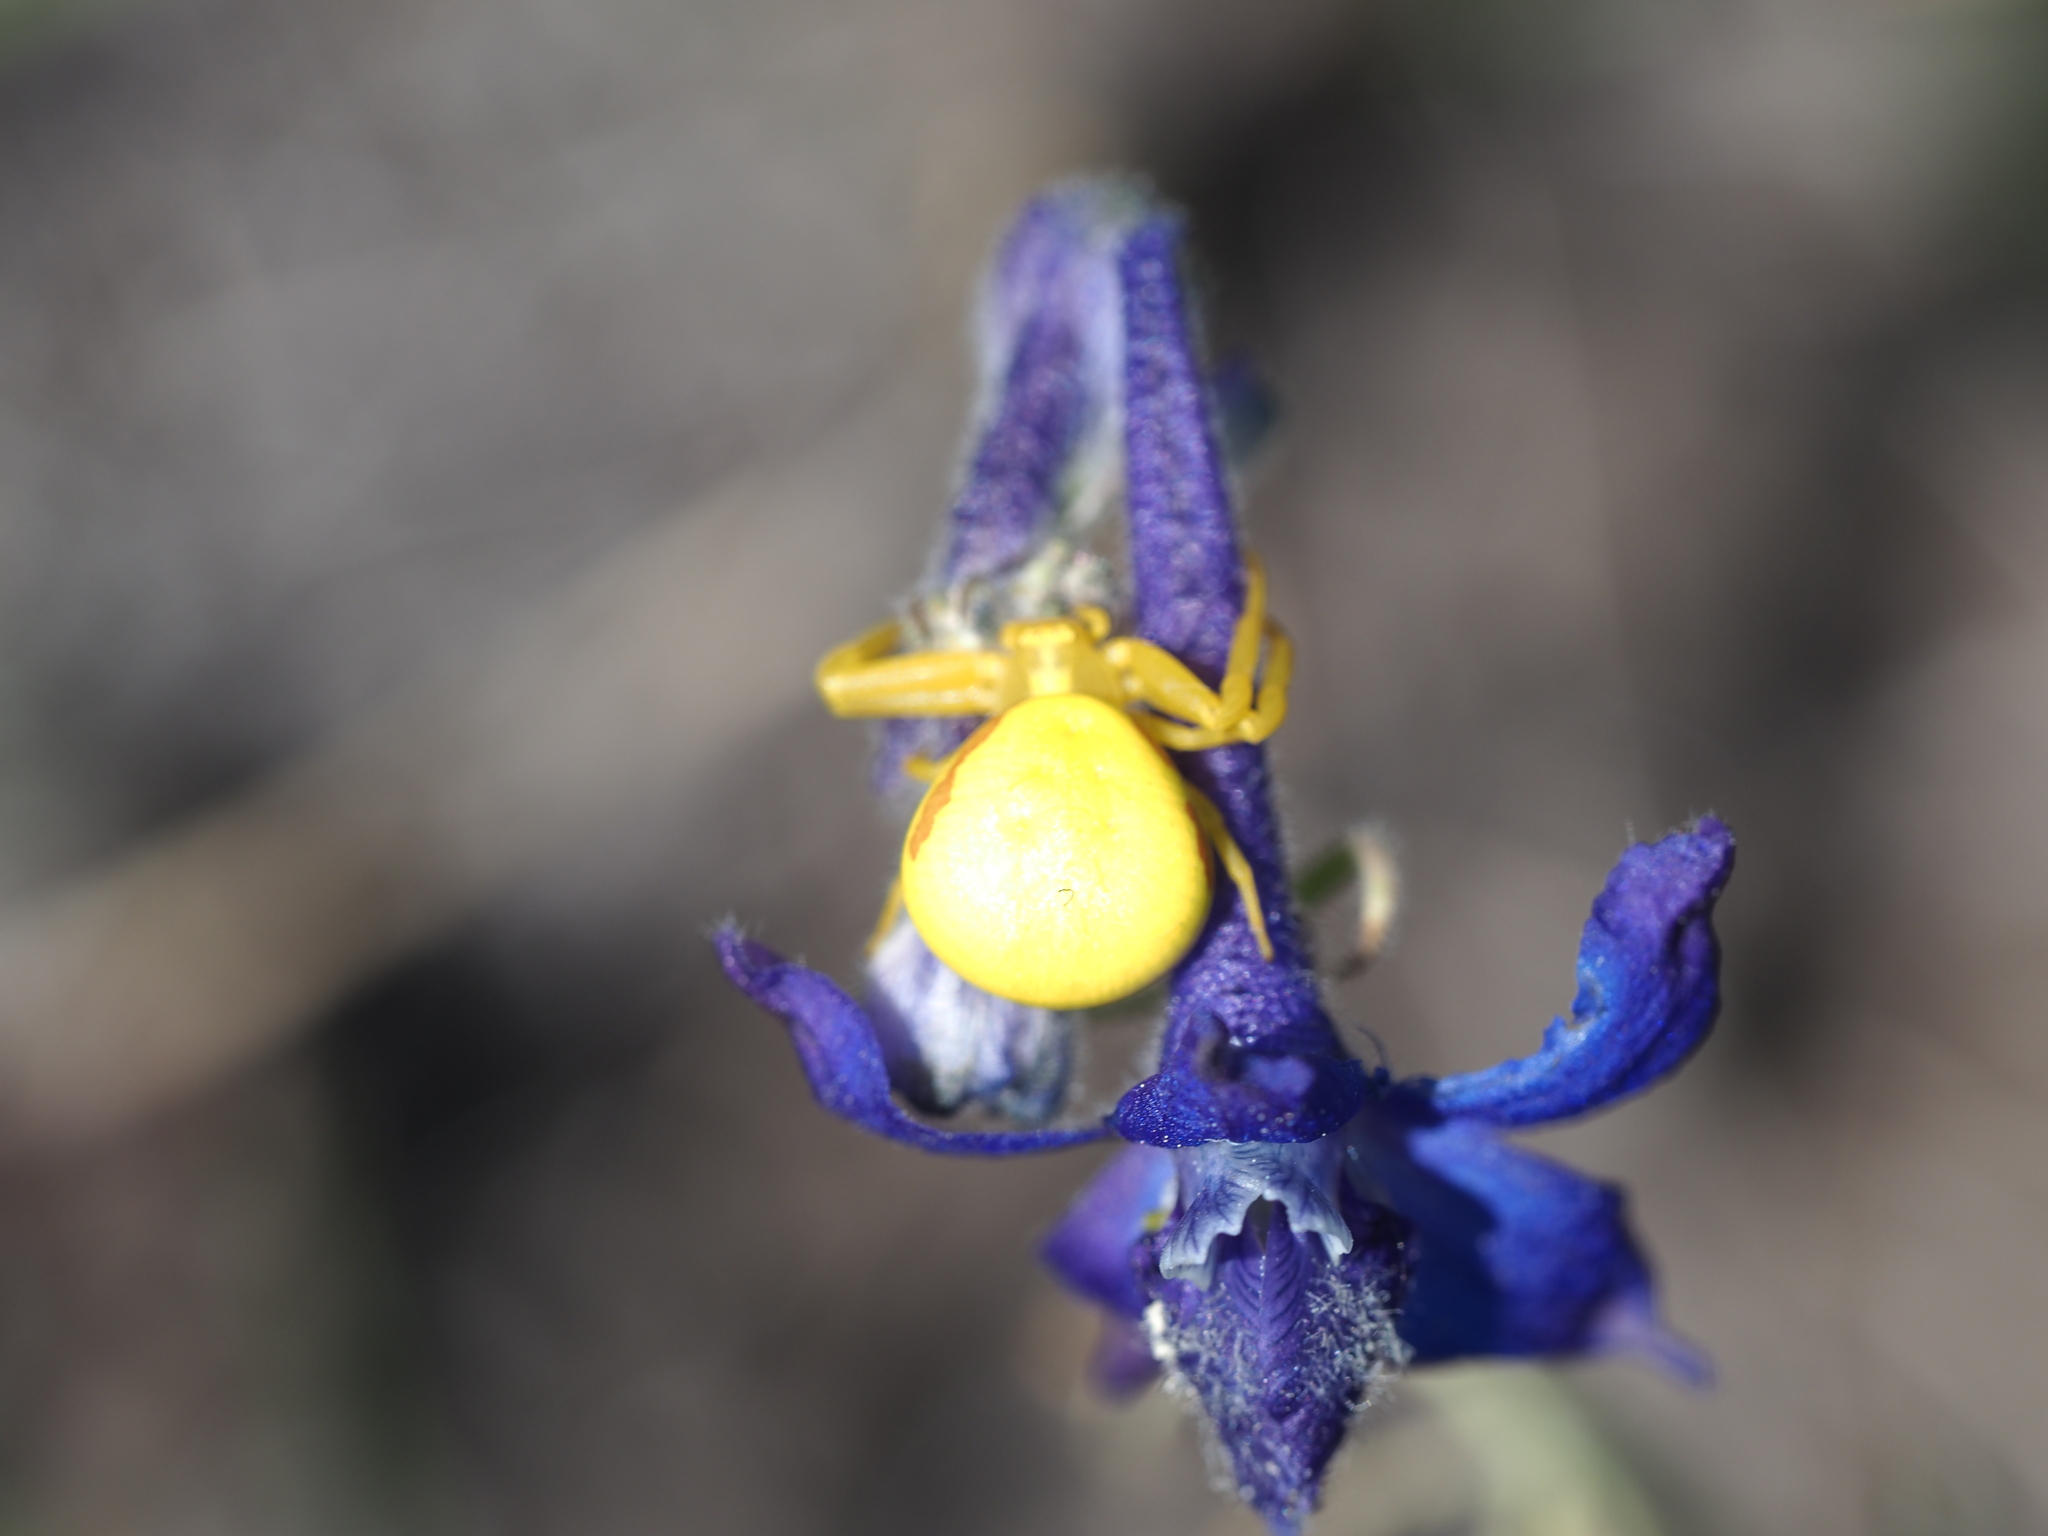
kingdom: Plantae
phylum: Tracheophyta
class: Magnoliopsida
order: Ranunculales
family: Ranunculaceae
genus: Delphinium
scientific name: Delphinium nuttallianum
